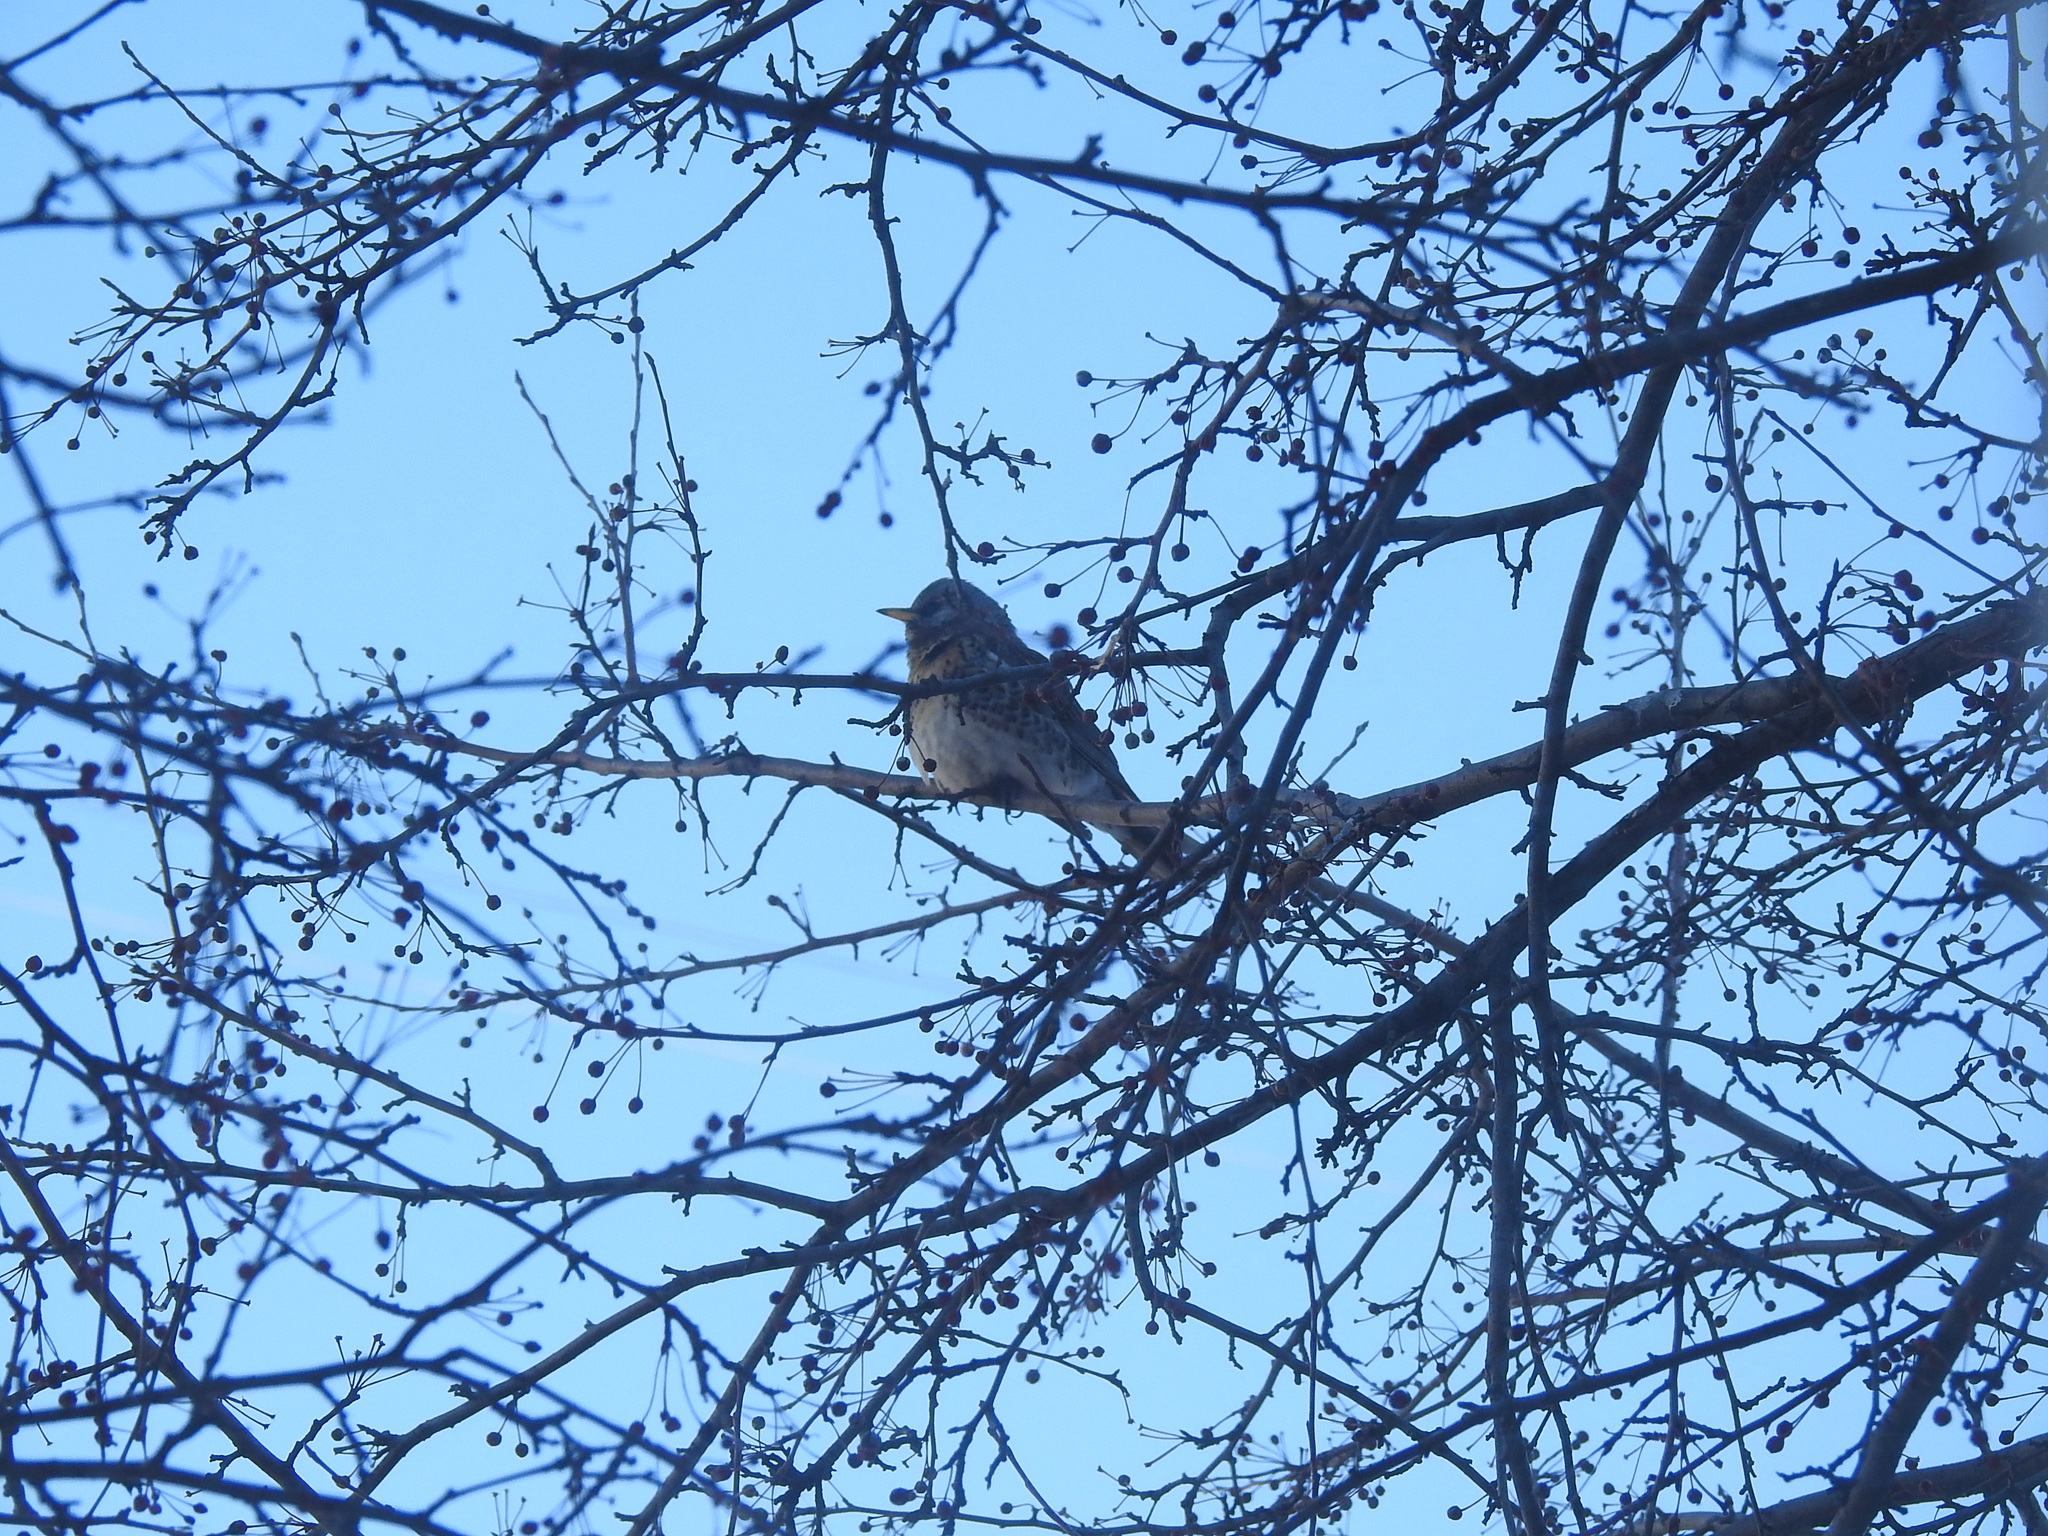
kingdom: Animalia
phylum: Chordata
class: Aves
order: Passeriformes
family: Turdidae
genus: Turdus
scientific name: Turdus pilaris
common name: Fieldfare
